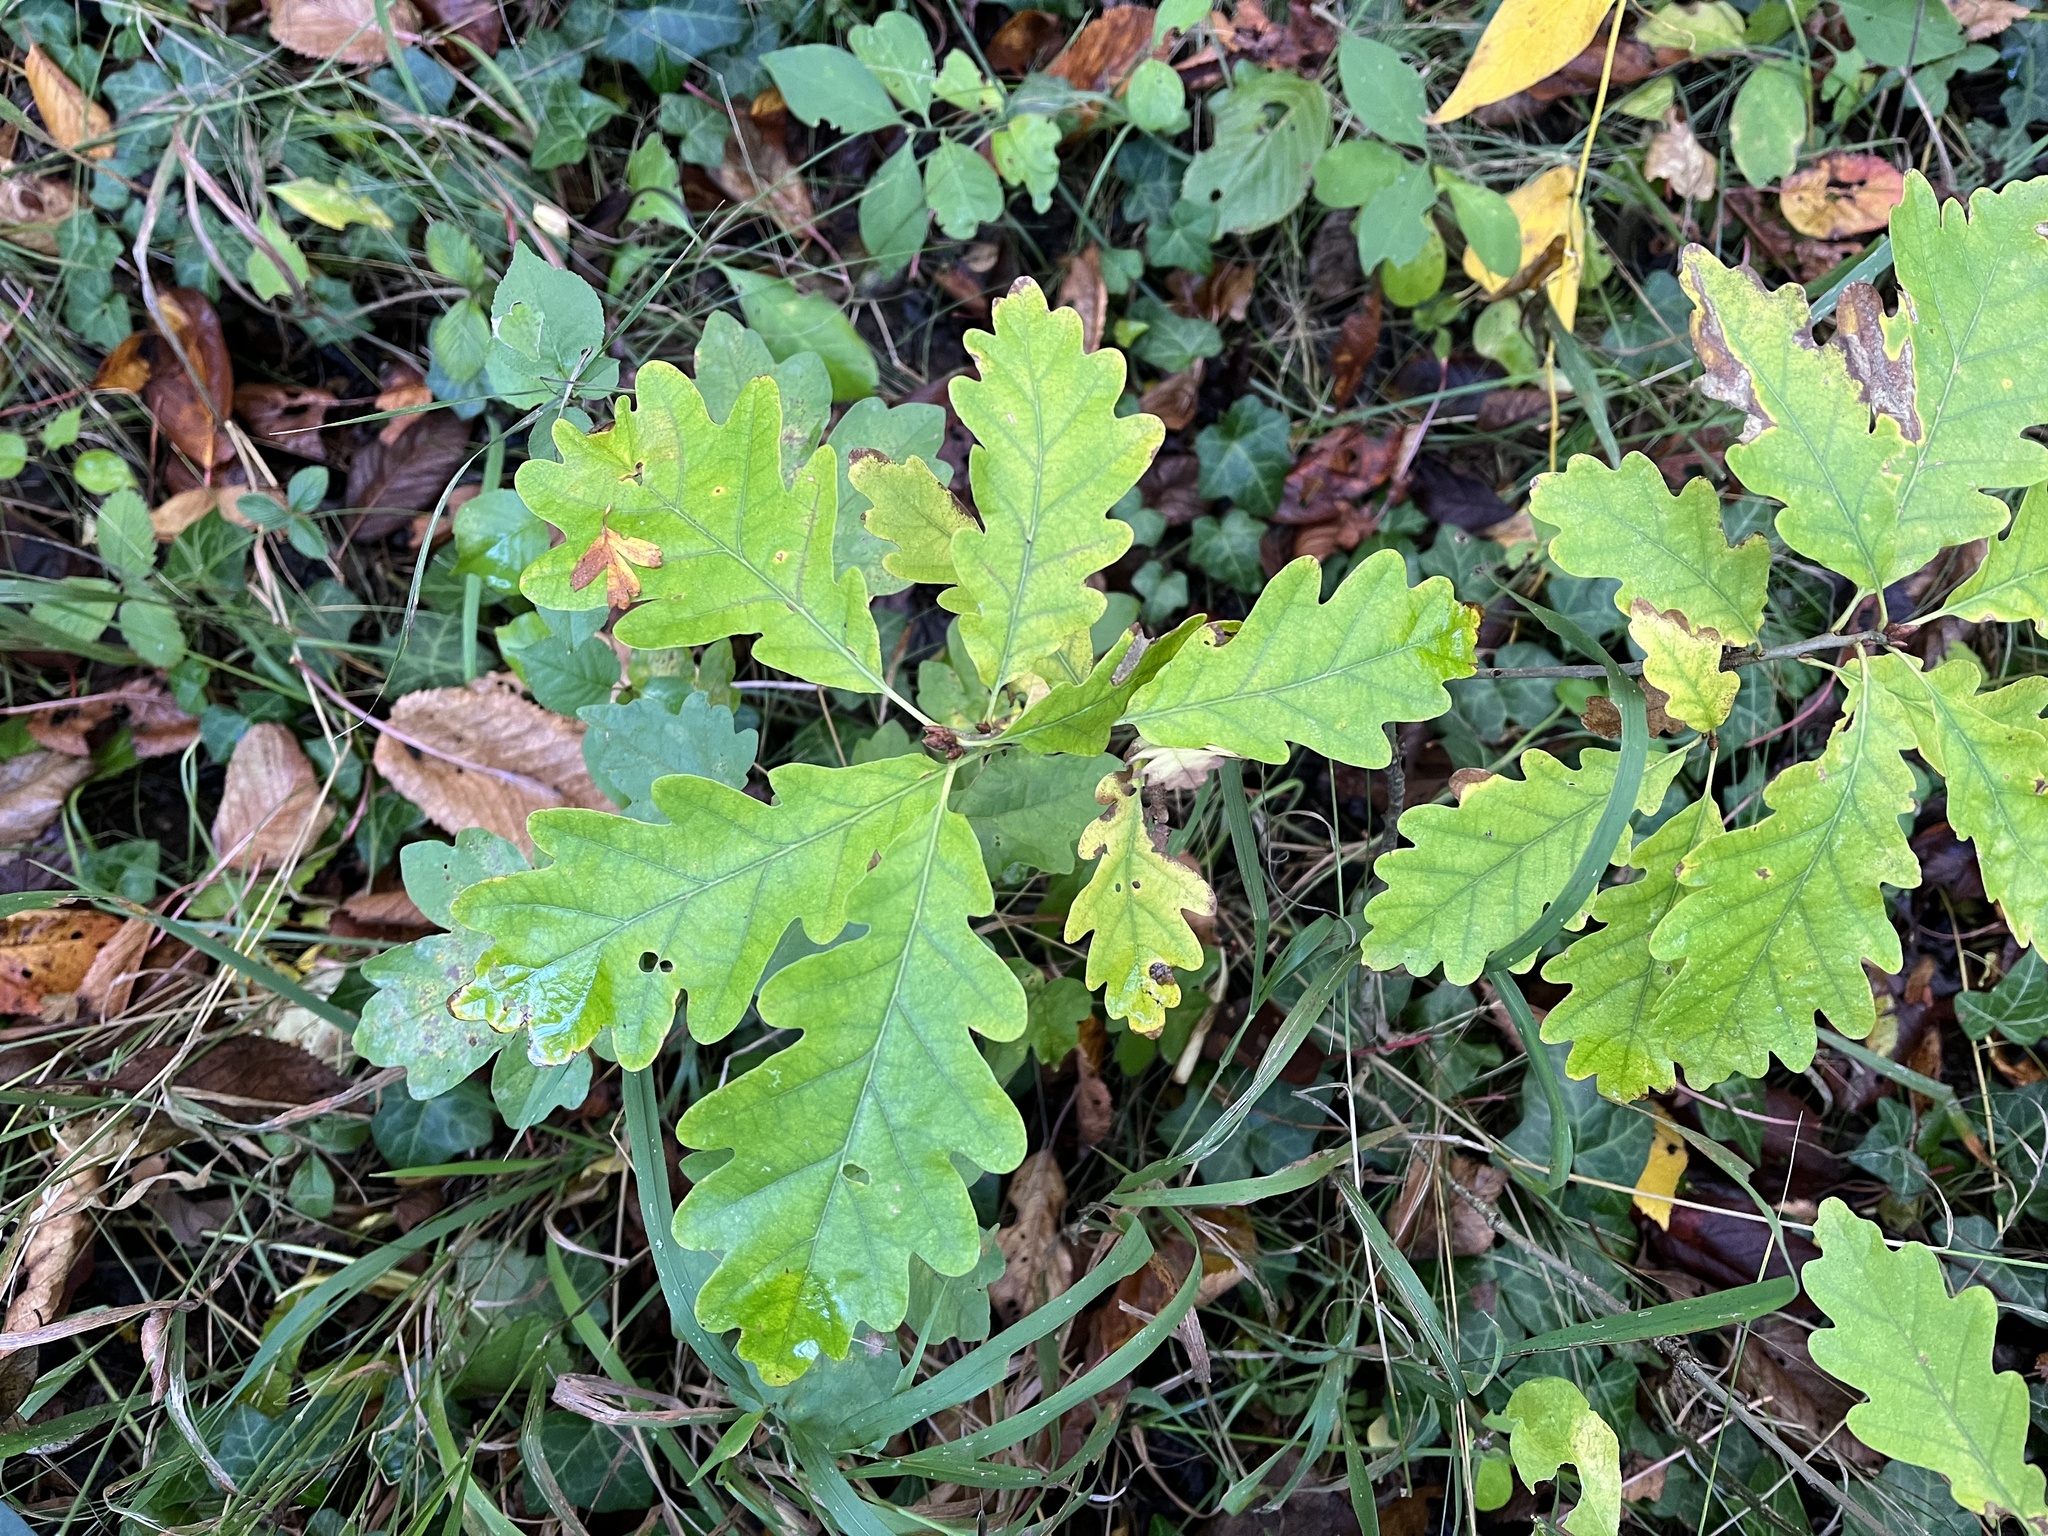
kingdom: Plantae
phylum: Tracheophyta
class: Magnoliopsida
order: Fagales
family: Fagaceae
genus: Quercus
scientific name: Quercus petraea
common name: Sessile oak
